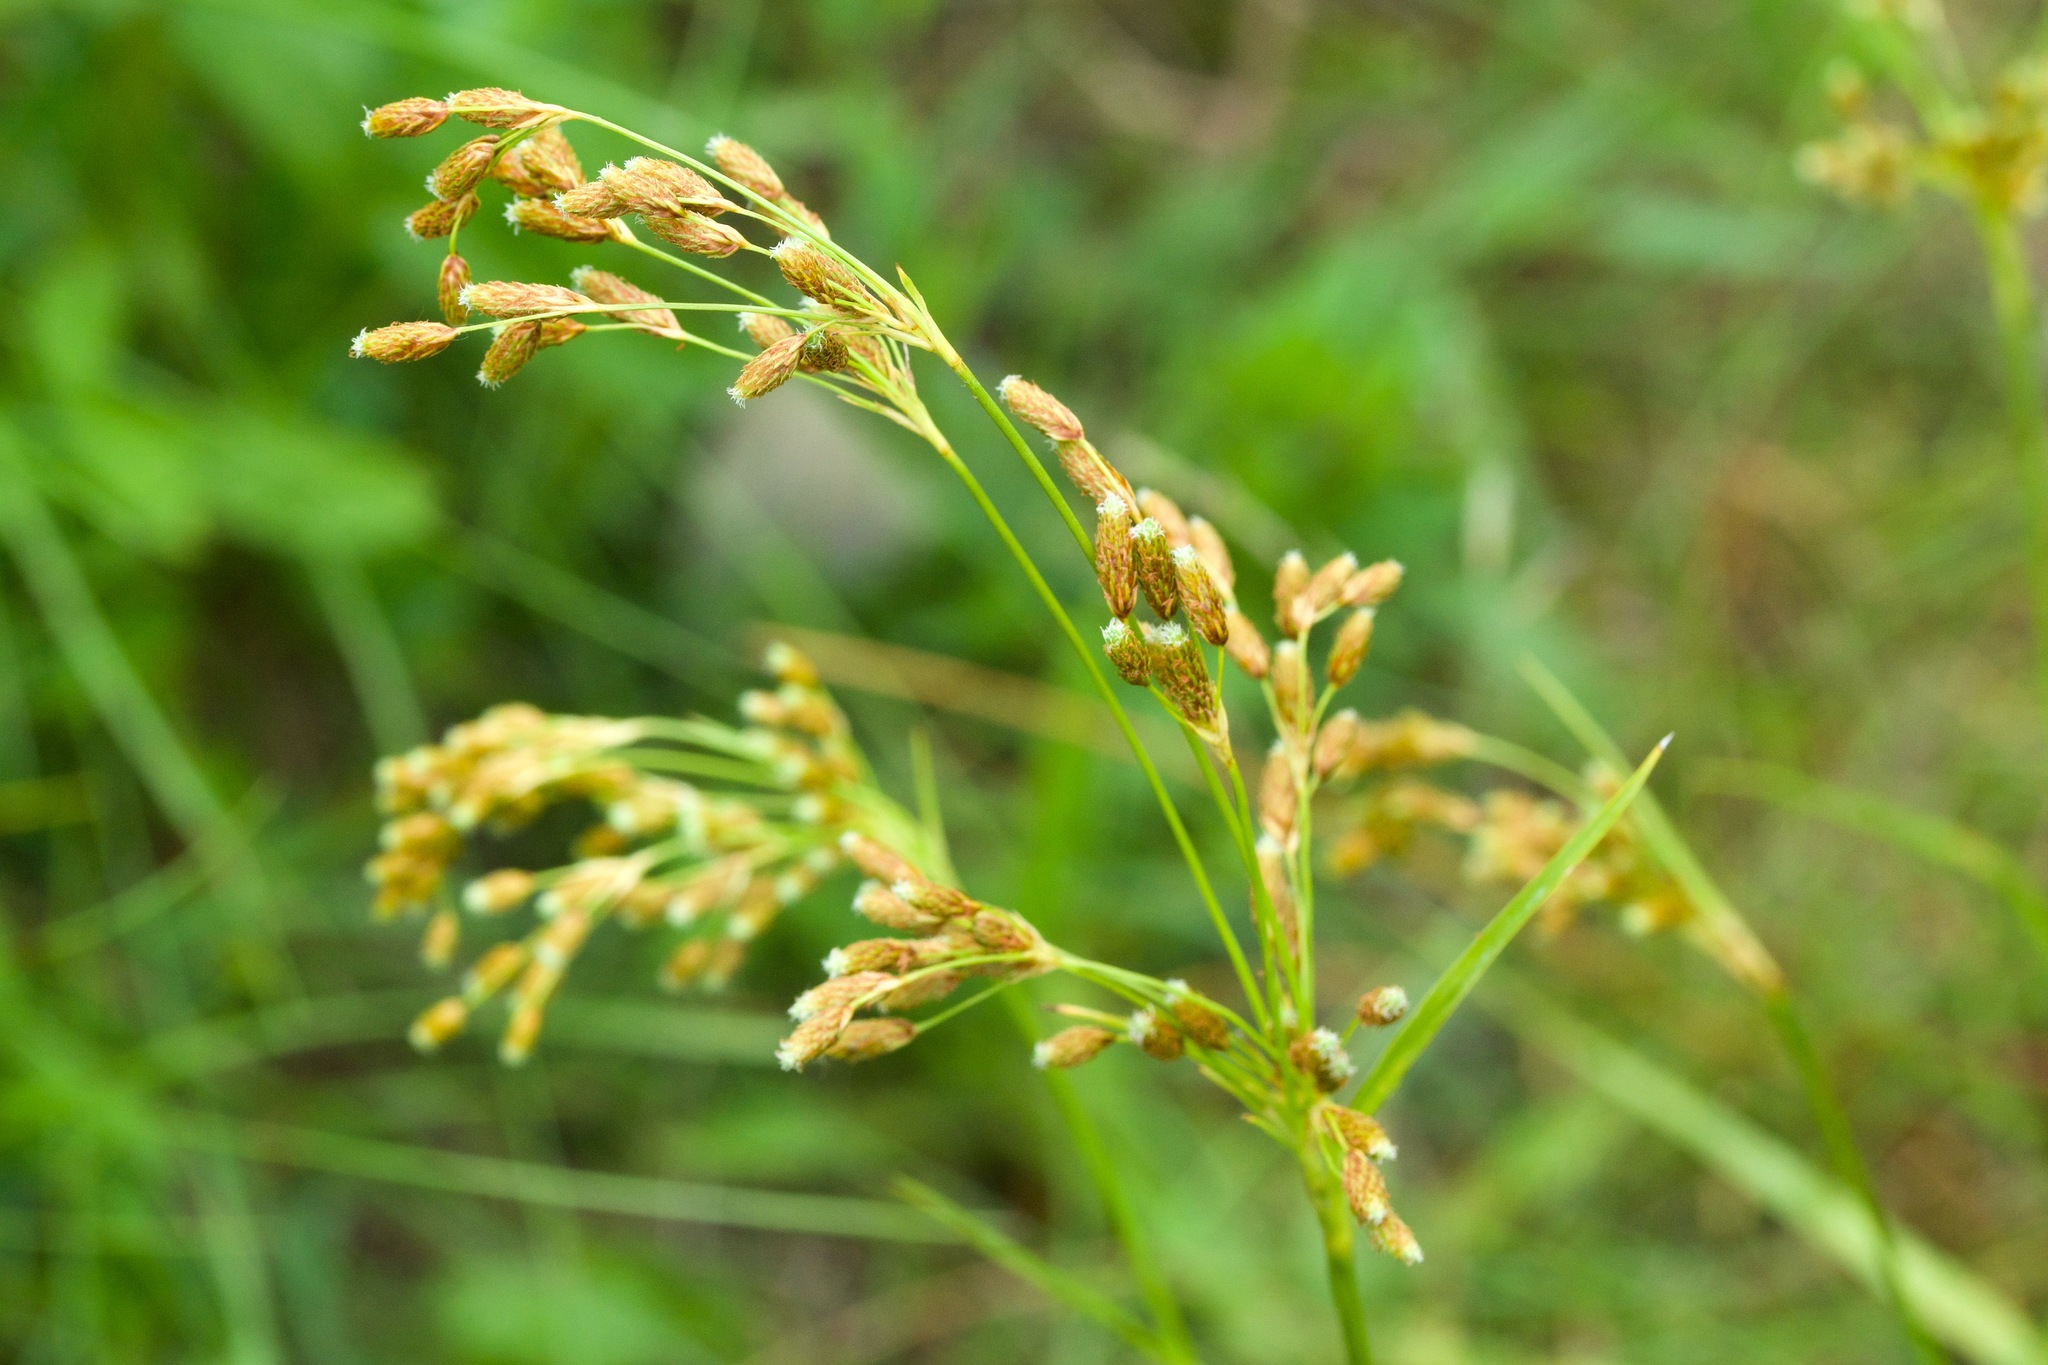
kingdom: Plantae
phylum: Tracheophyta
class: Liliopsida
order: Poales
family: Cyperaceae
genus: Scirpus
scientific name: Scirpus pendulus
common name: Nodding bulrush
